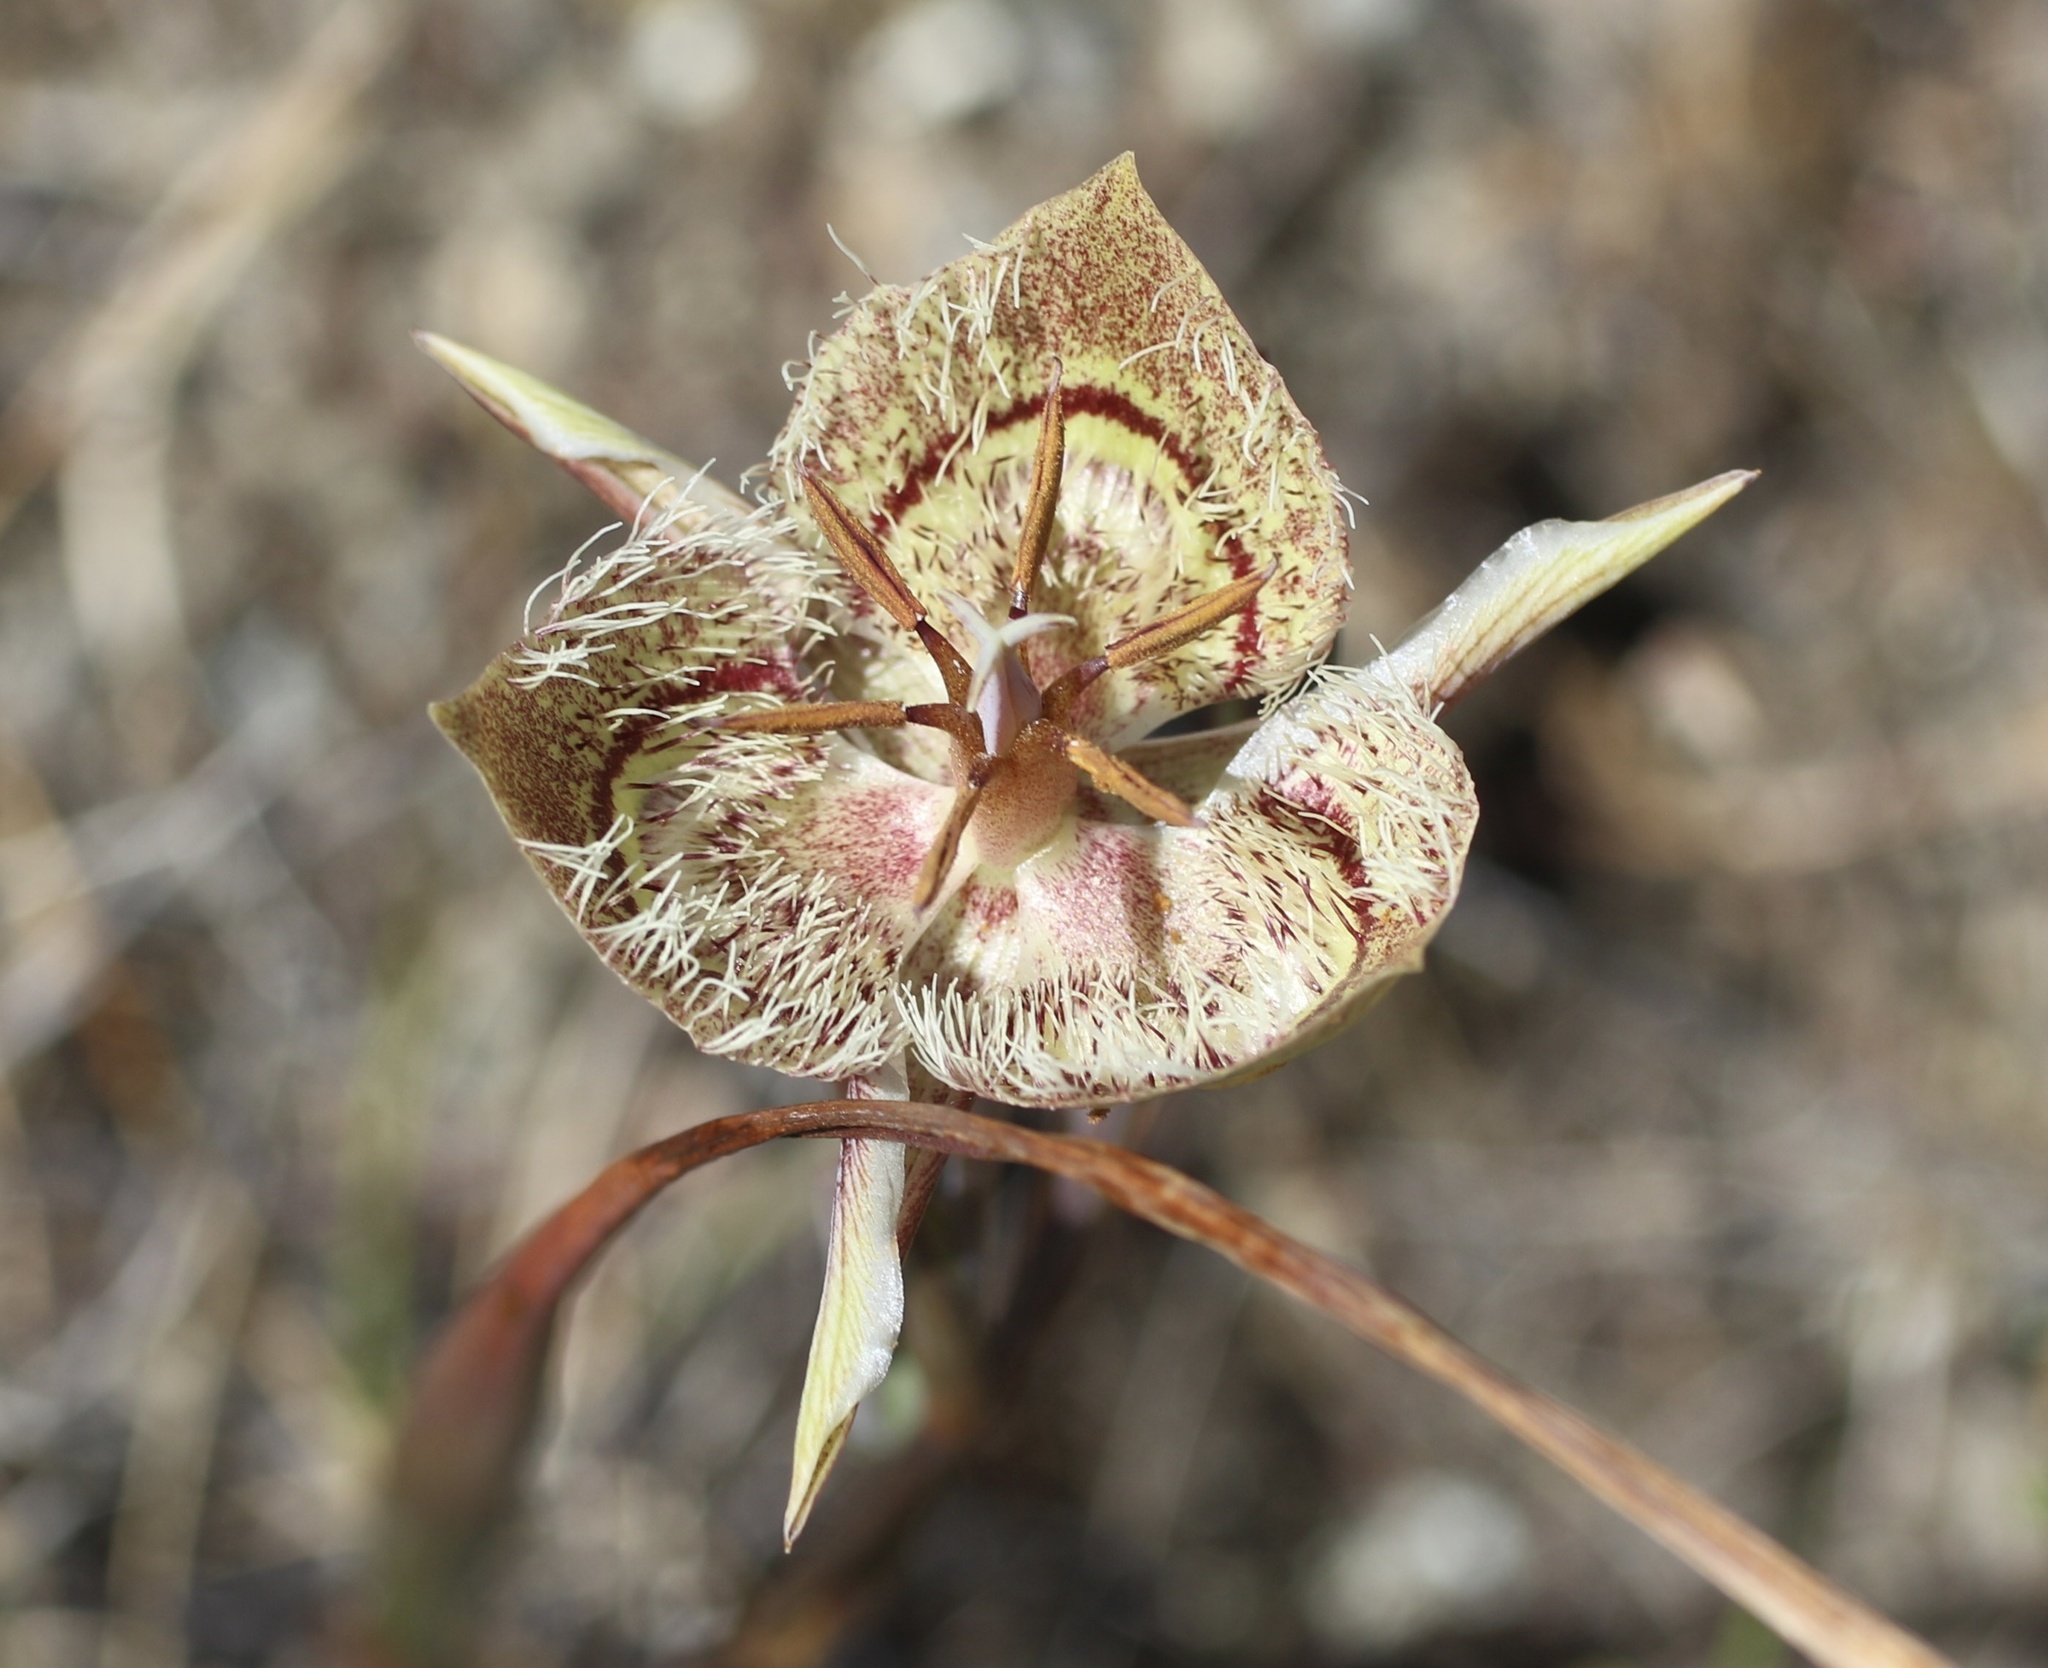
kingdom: Plantae
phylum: Tracheophyta
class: Liliopsida
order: Liliales
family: Liliaceae
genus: Calochortus
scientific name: Calochortus tiburonensis
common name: Tiburon mariposa-lily
